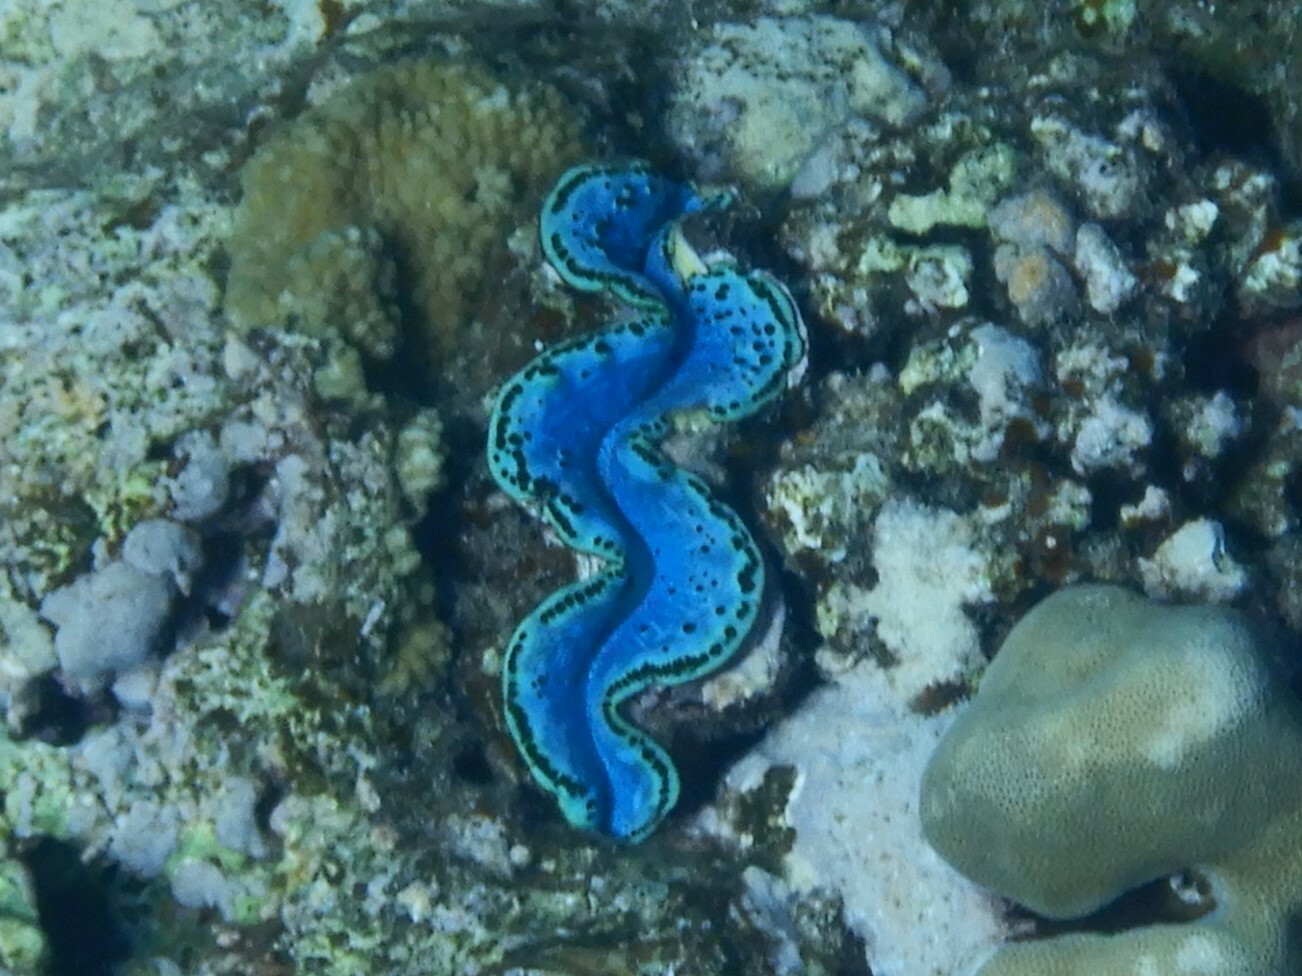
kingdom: Animalia
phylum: Mollusca
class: Bivalvia
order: Cardiida
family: Cardiidae
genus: Tridacna
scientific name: Tridacna maxima
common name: Small giant clam
